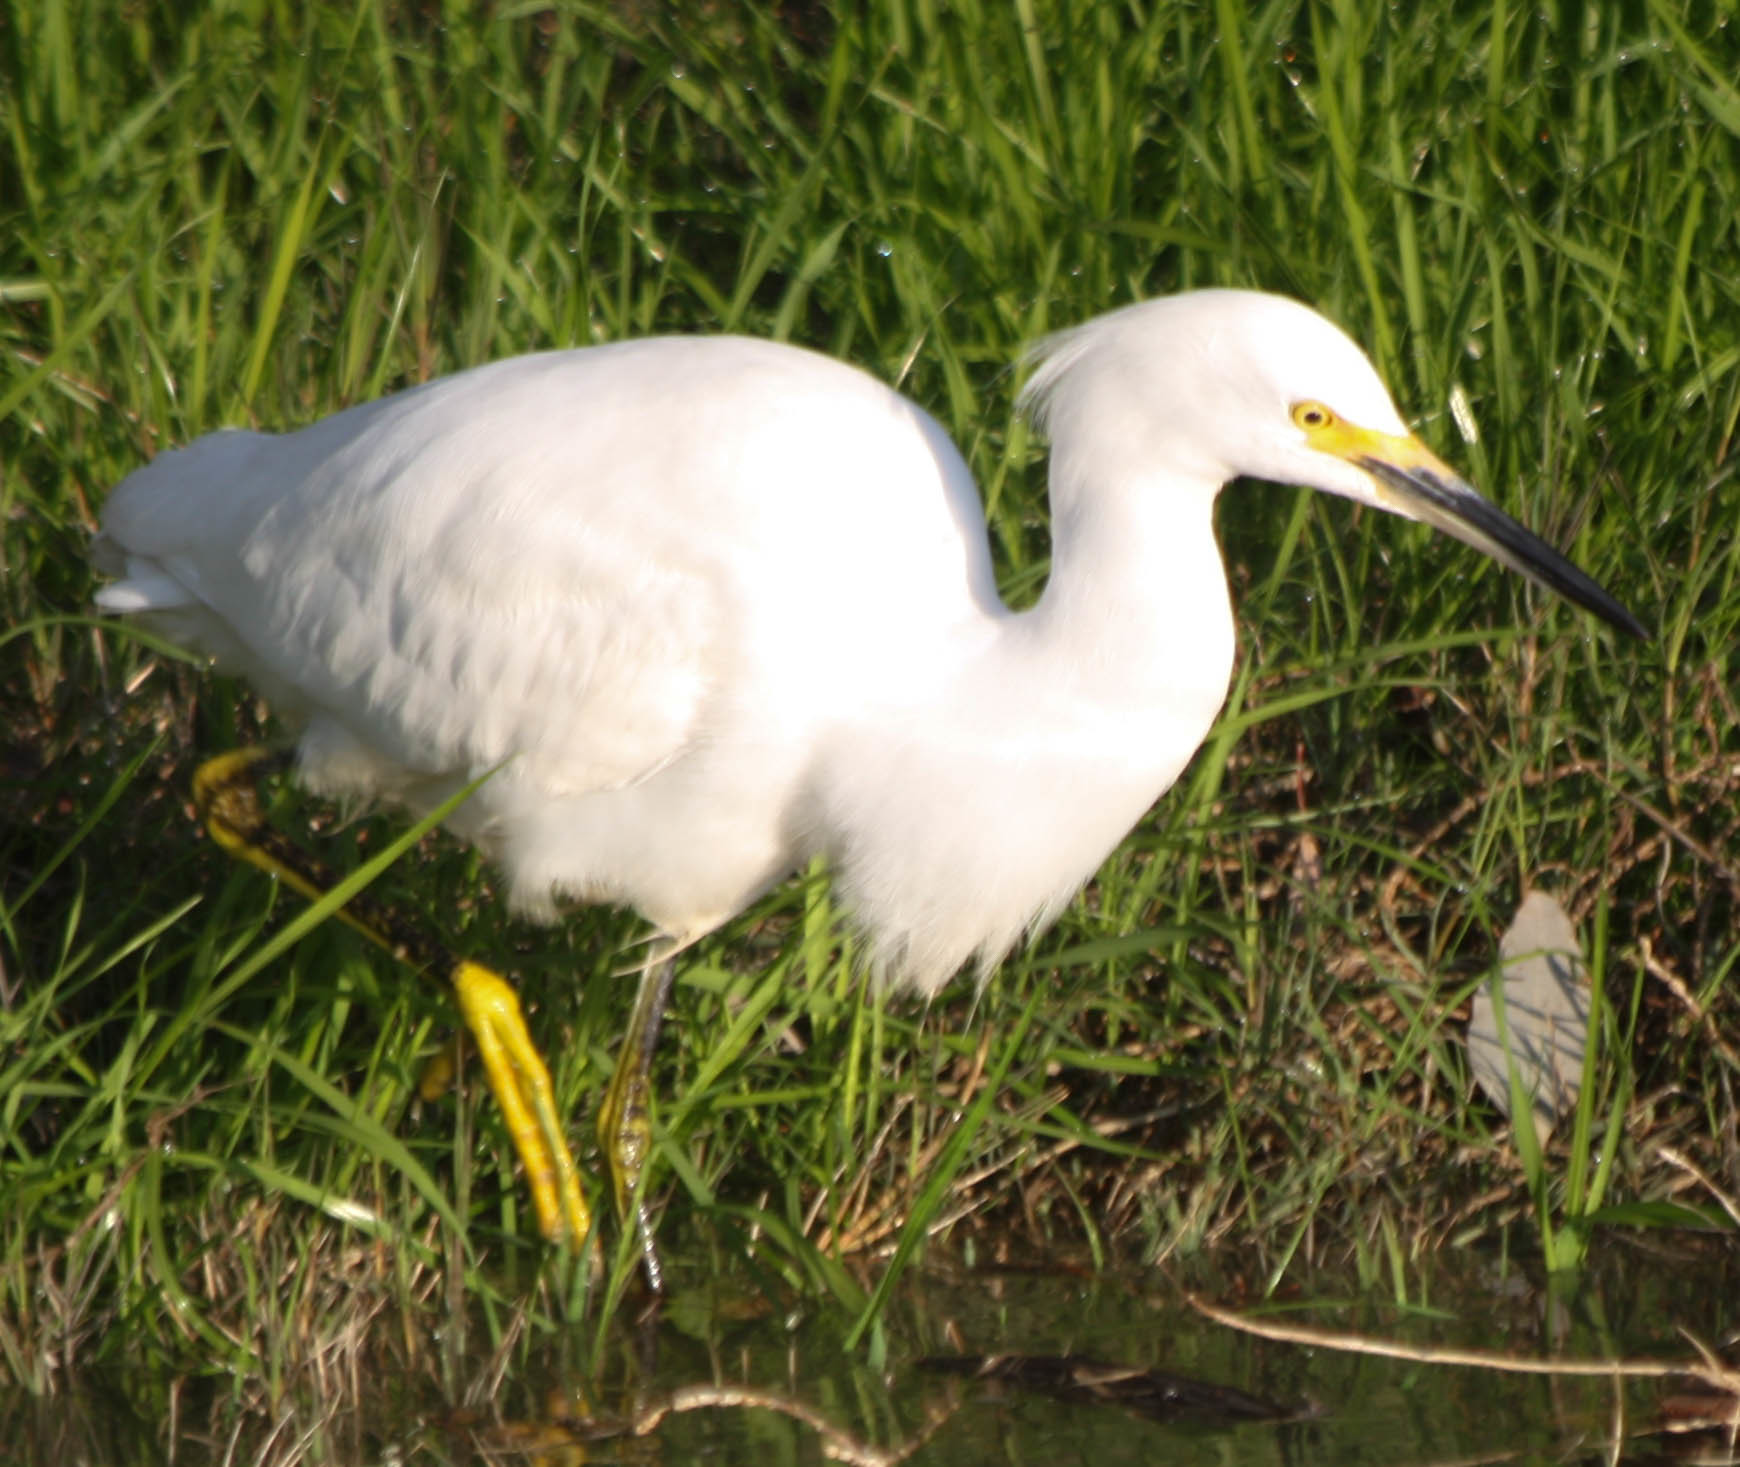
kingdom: Animalia
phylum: Chordata
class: Aves
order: Pelecaniformes
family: Ardeidae
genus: Egretta
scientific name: Egretta thula
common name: Snowy egret
